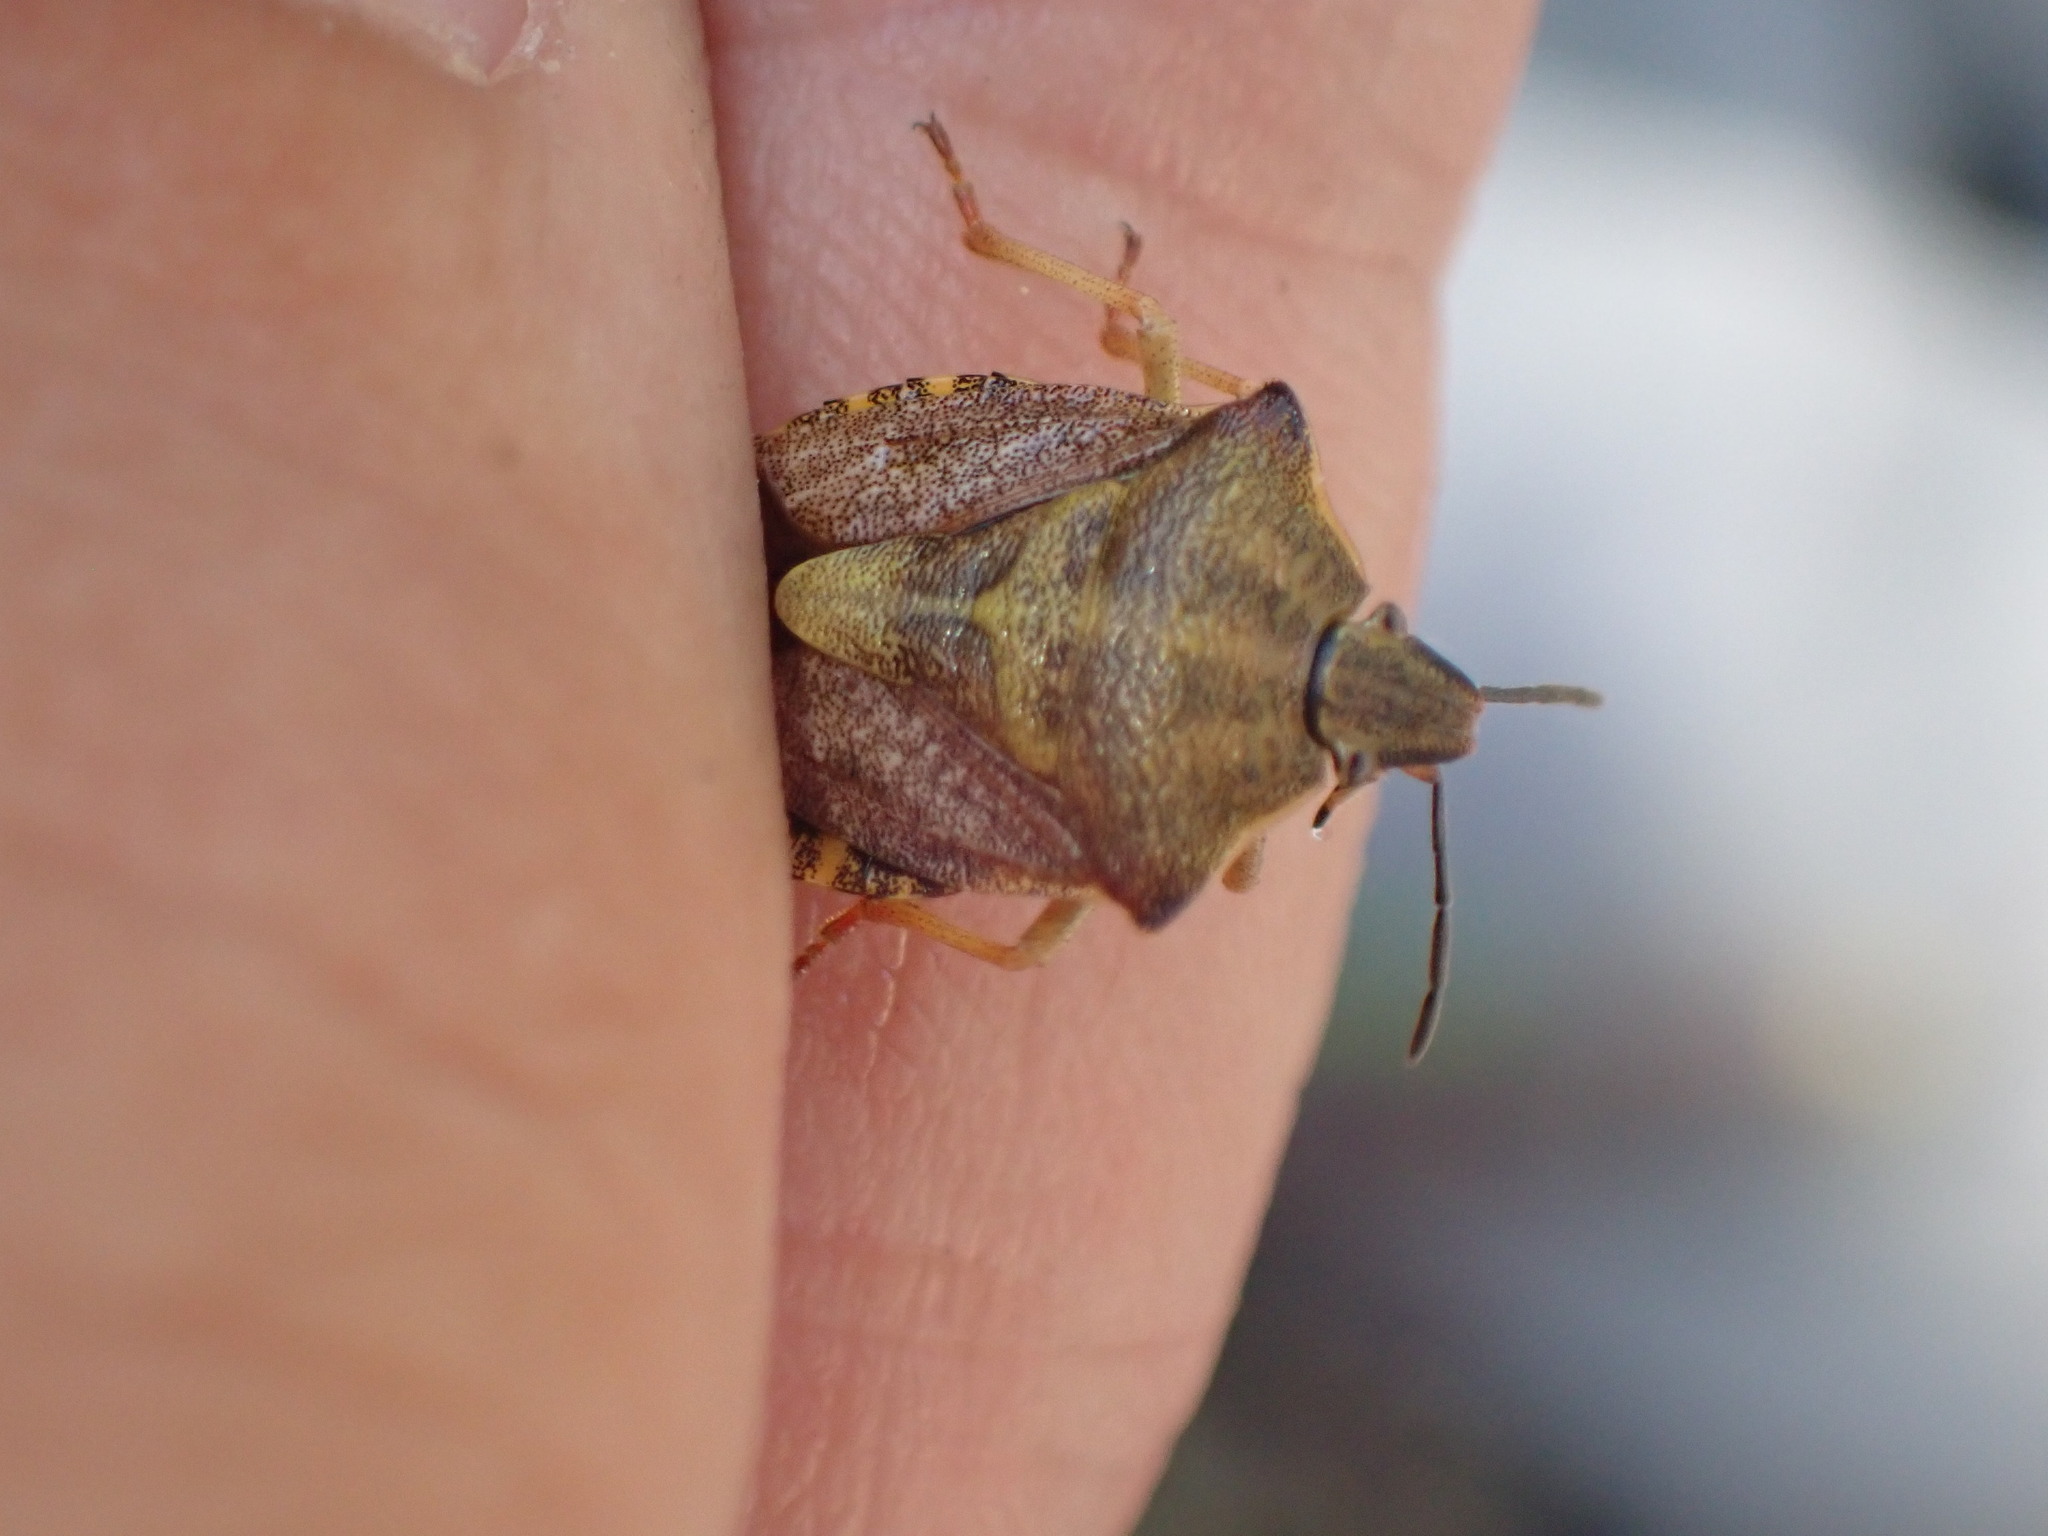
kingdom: Animalia
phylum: Arthropoda
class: Insecta
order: Hemiptera
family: Pentatomidae
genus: Carpocoris
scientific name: Carpocoris purpureipennis
